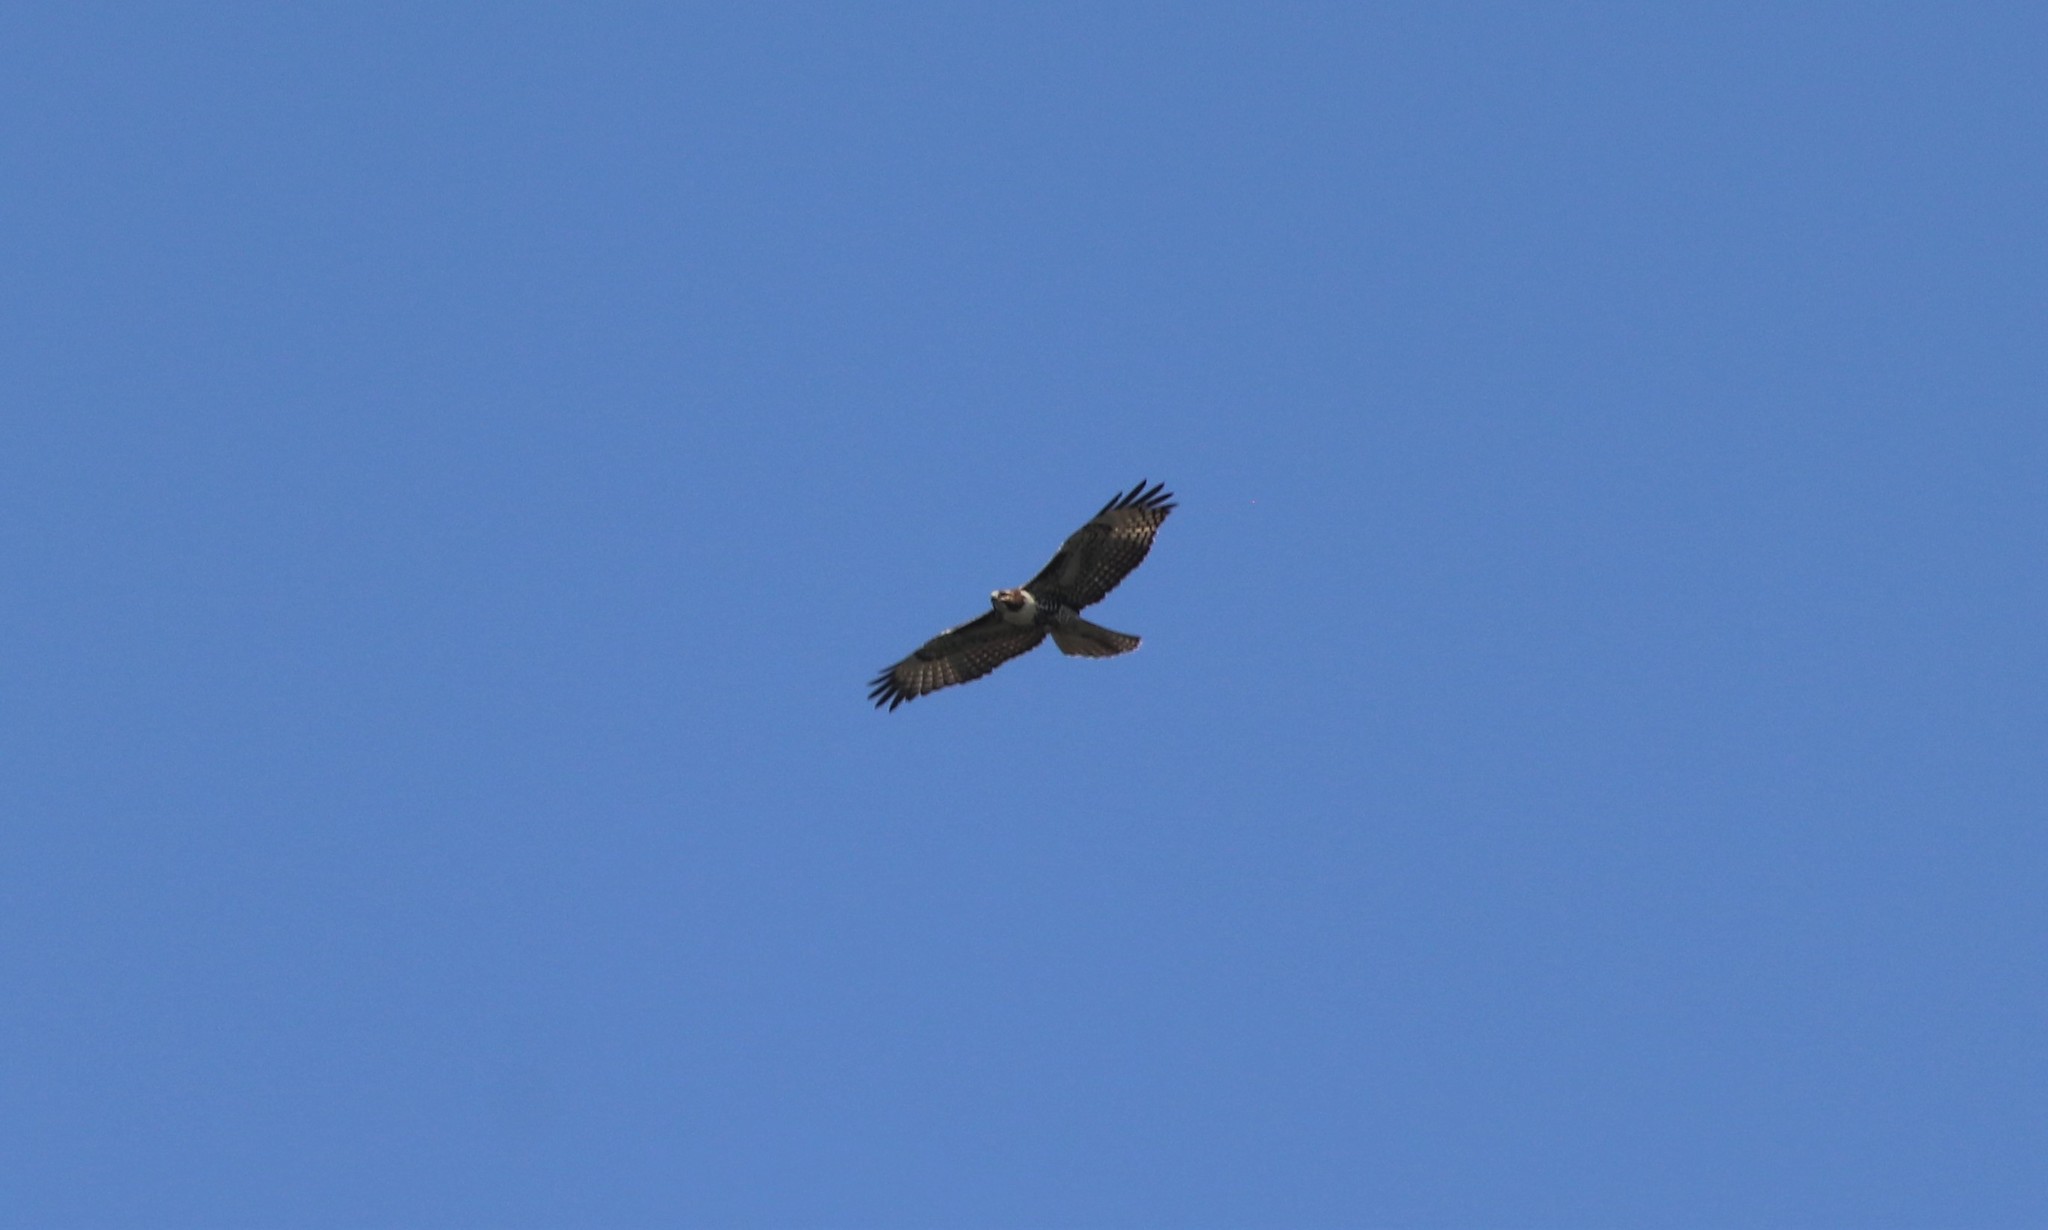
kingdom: Animalia
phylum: Chordata
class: Aves
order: Accipitriformes
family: Accipitridae
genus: Buteo
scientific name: Buteo jamaicensis
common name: Red-tailed hawk
